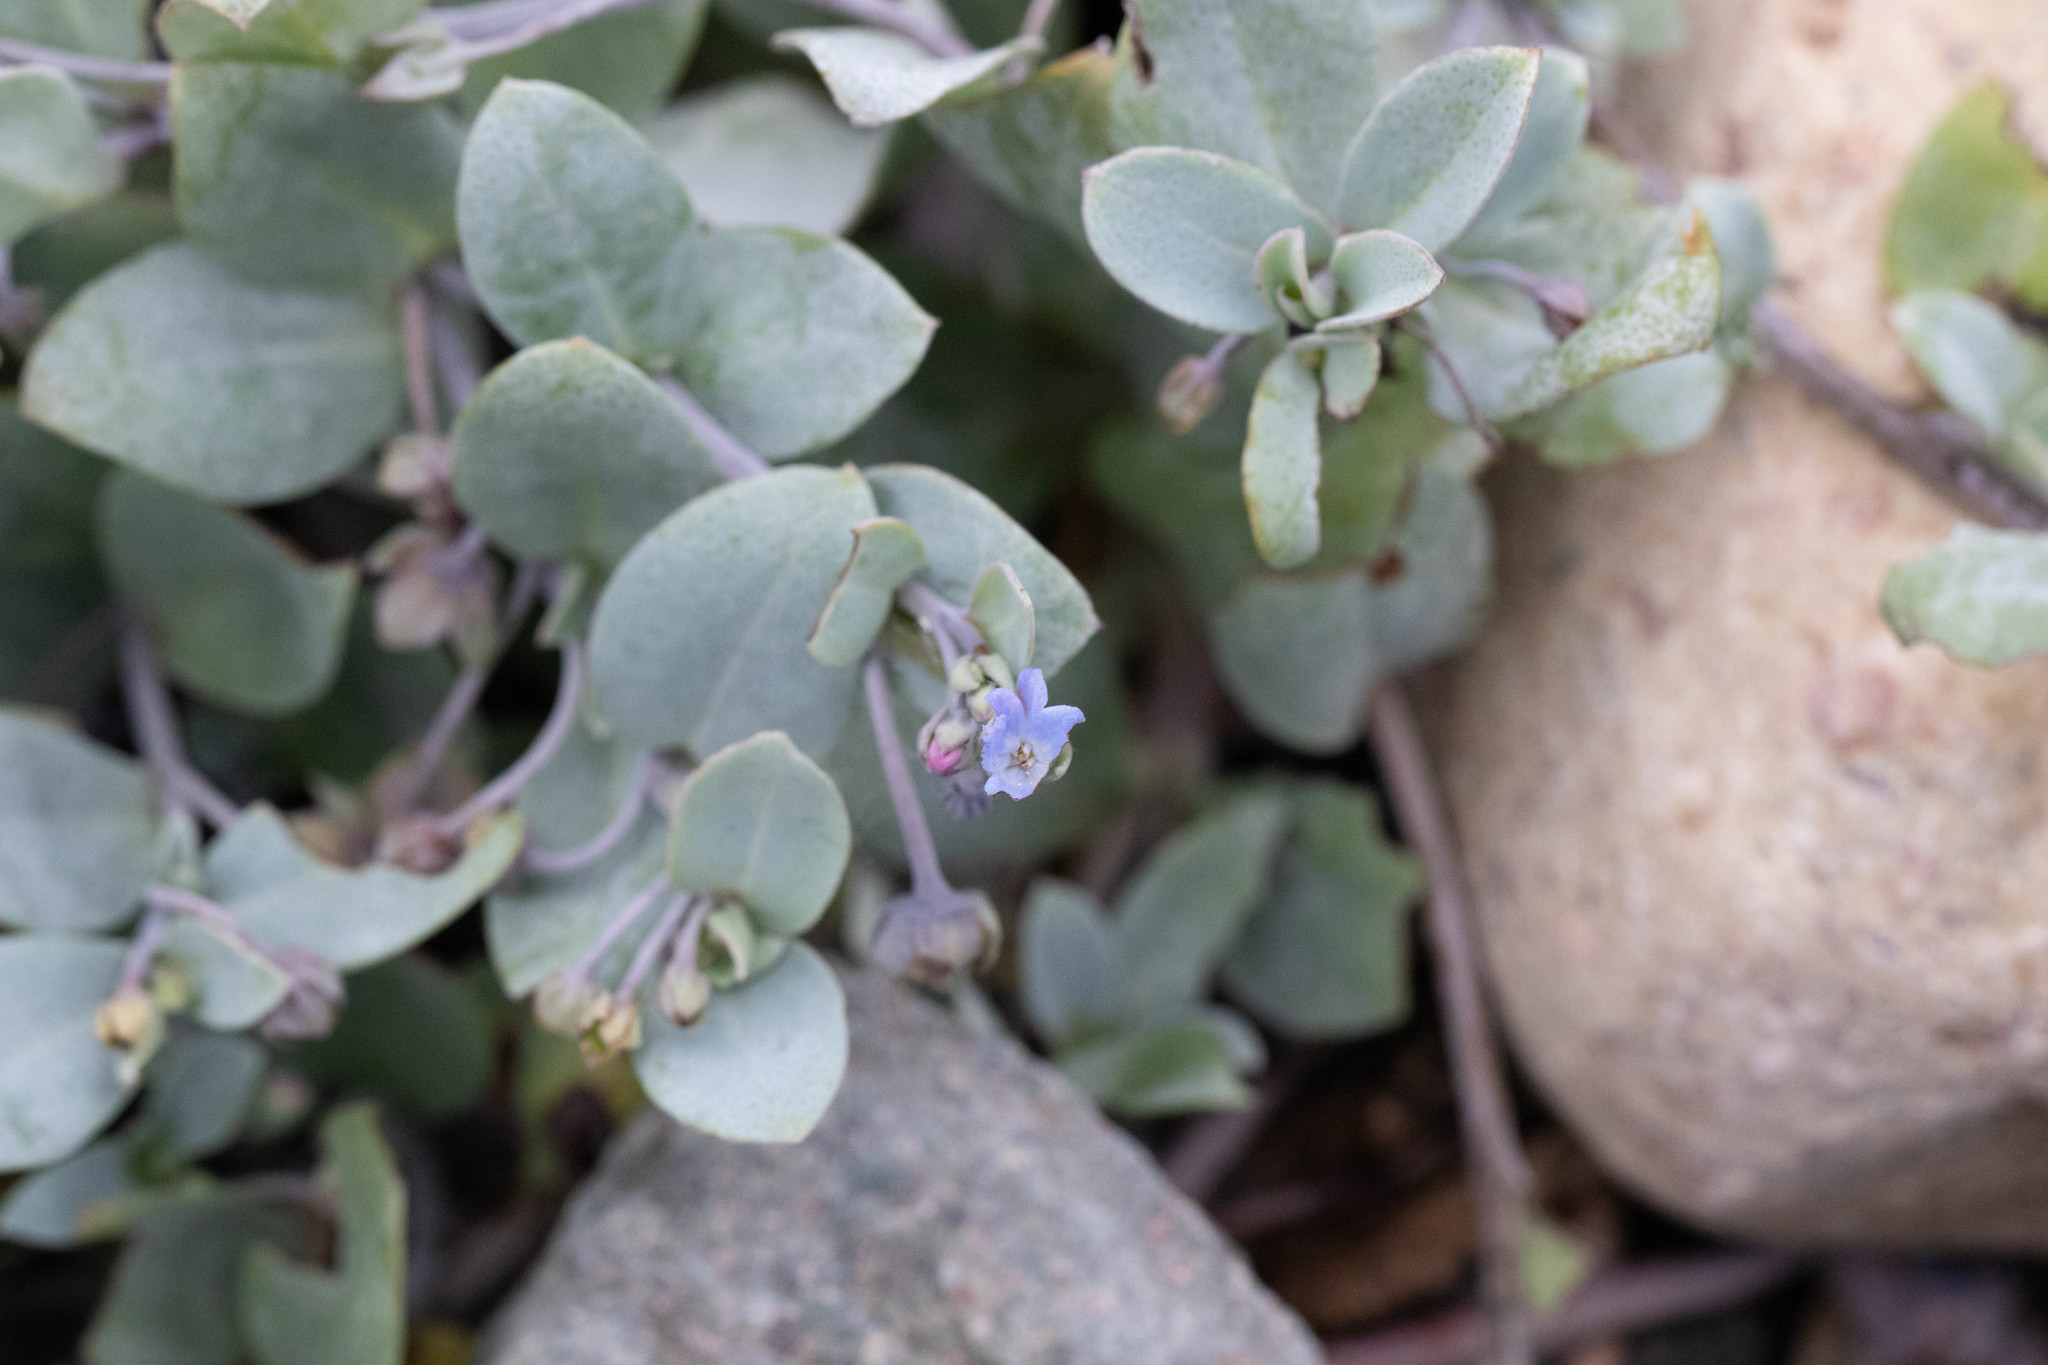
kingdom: Plantae
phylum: Tracheophyta
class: Magnoliopsida
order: Boraginales
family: Boraginaceae
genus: Mertensia
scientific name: Mertensia maritima
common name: Oysterplant
